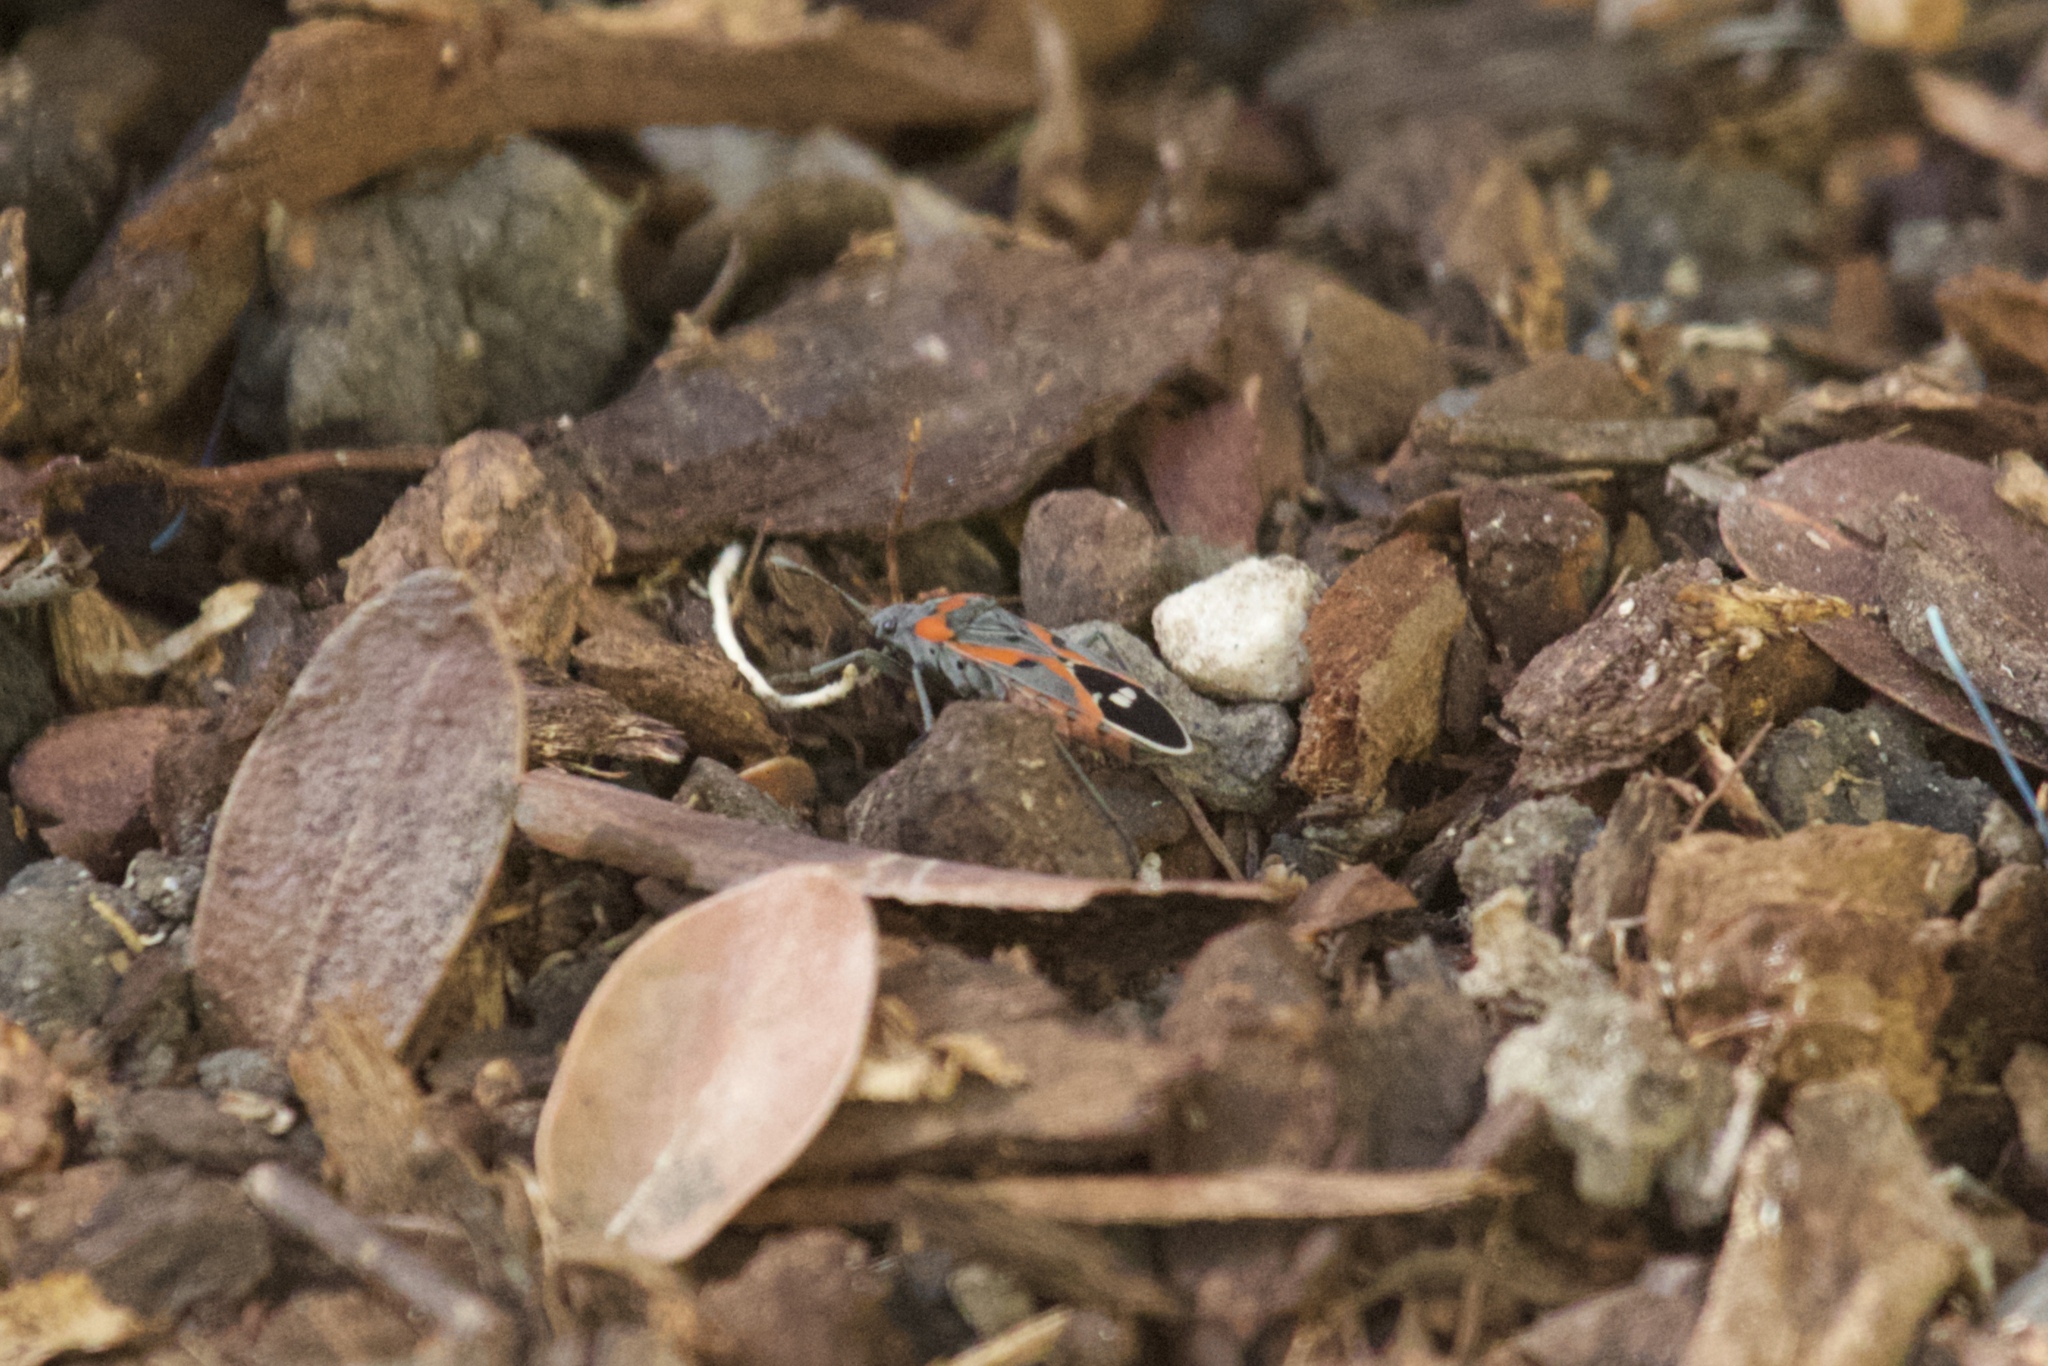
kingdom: Animalia
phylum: Arthropoda
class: Insecta
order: Hemiptera
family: Lygaeidae
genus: Lygaeus
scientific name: Lygaeus kalmii
